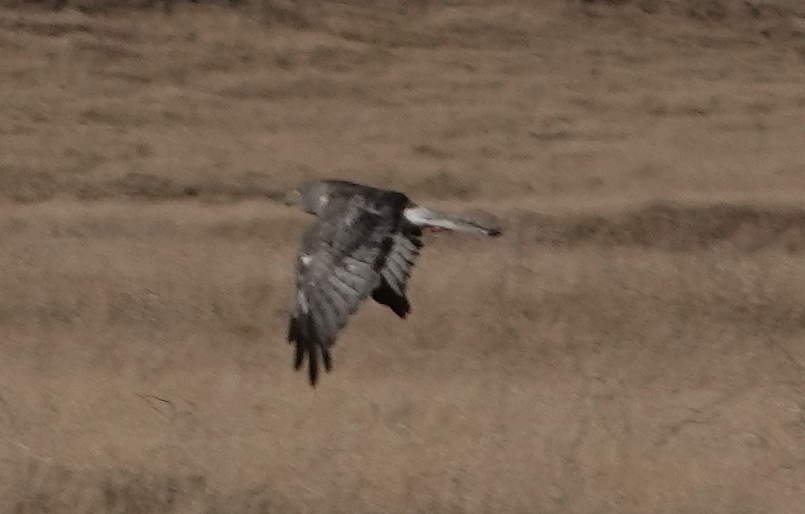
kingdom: Animalia
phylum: Chordata
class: Aves
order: Accipitriformes
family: Accipitridae
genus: Circus
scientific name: Circus cyaneus
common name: Hen harrier
